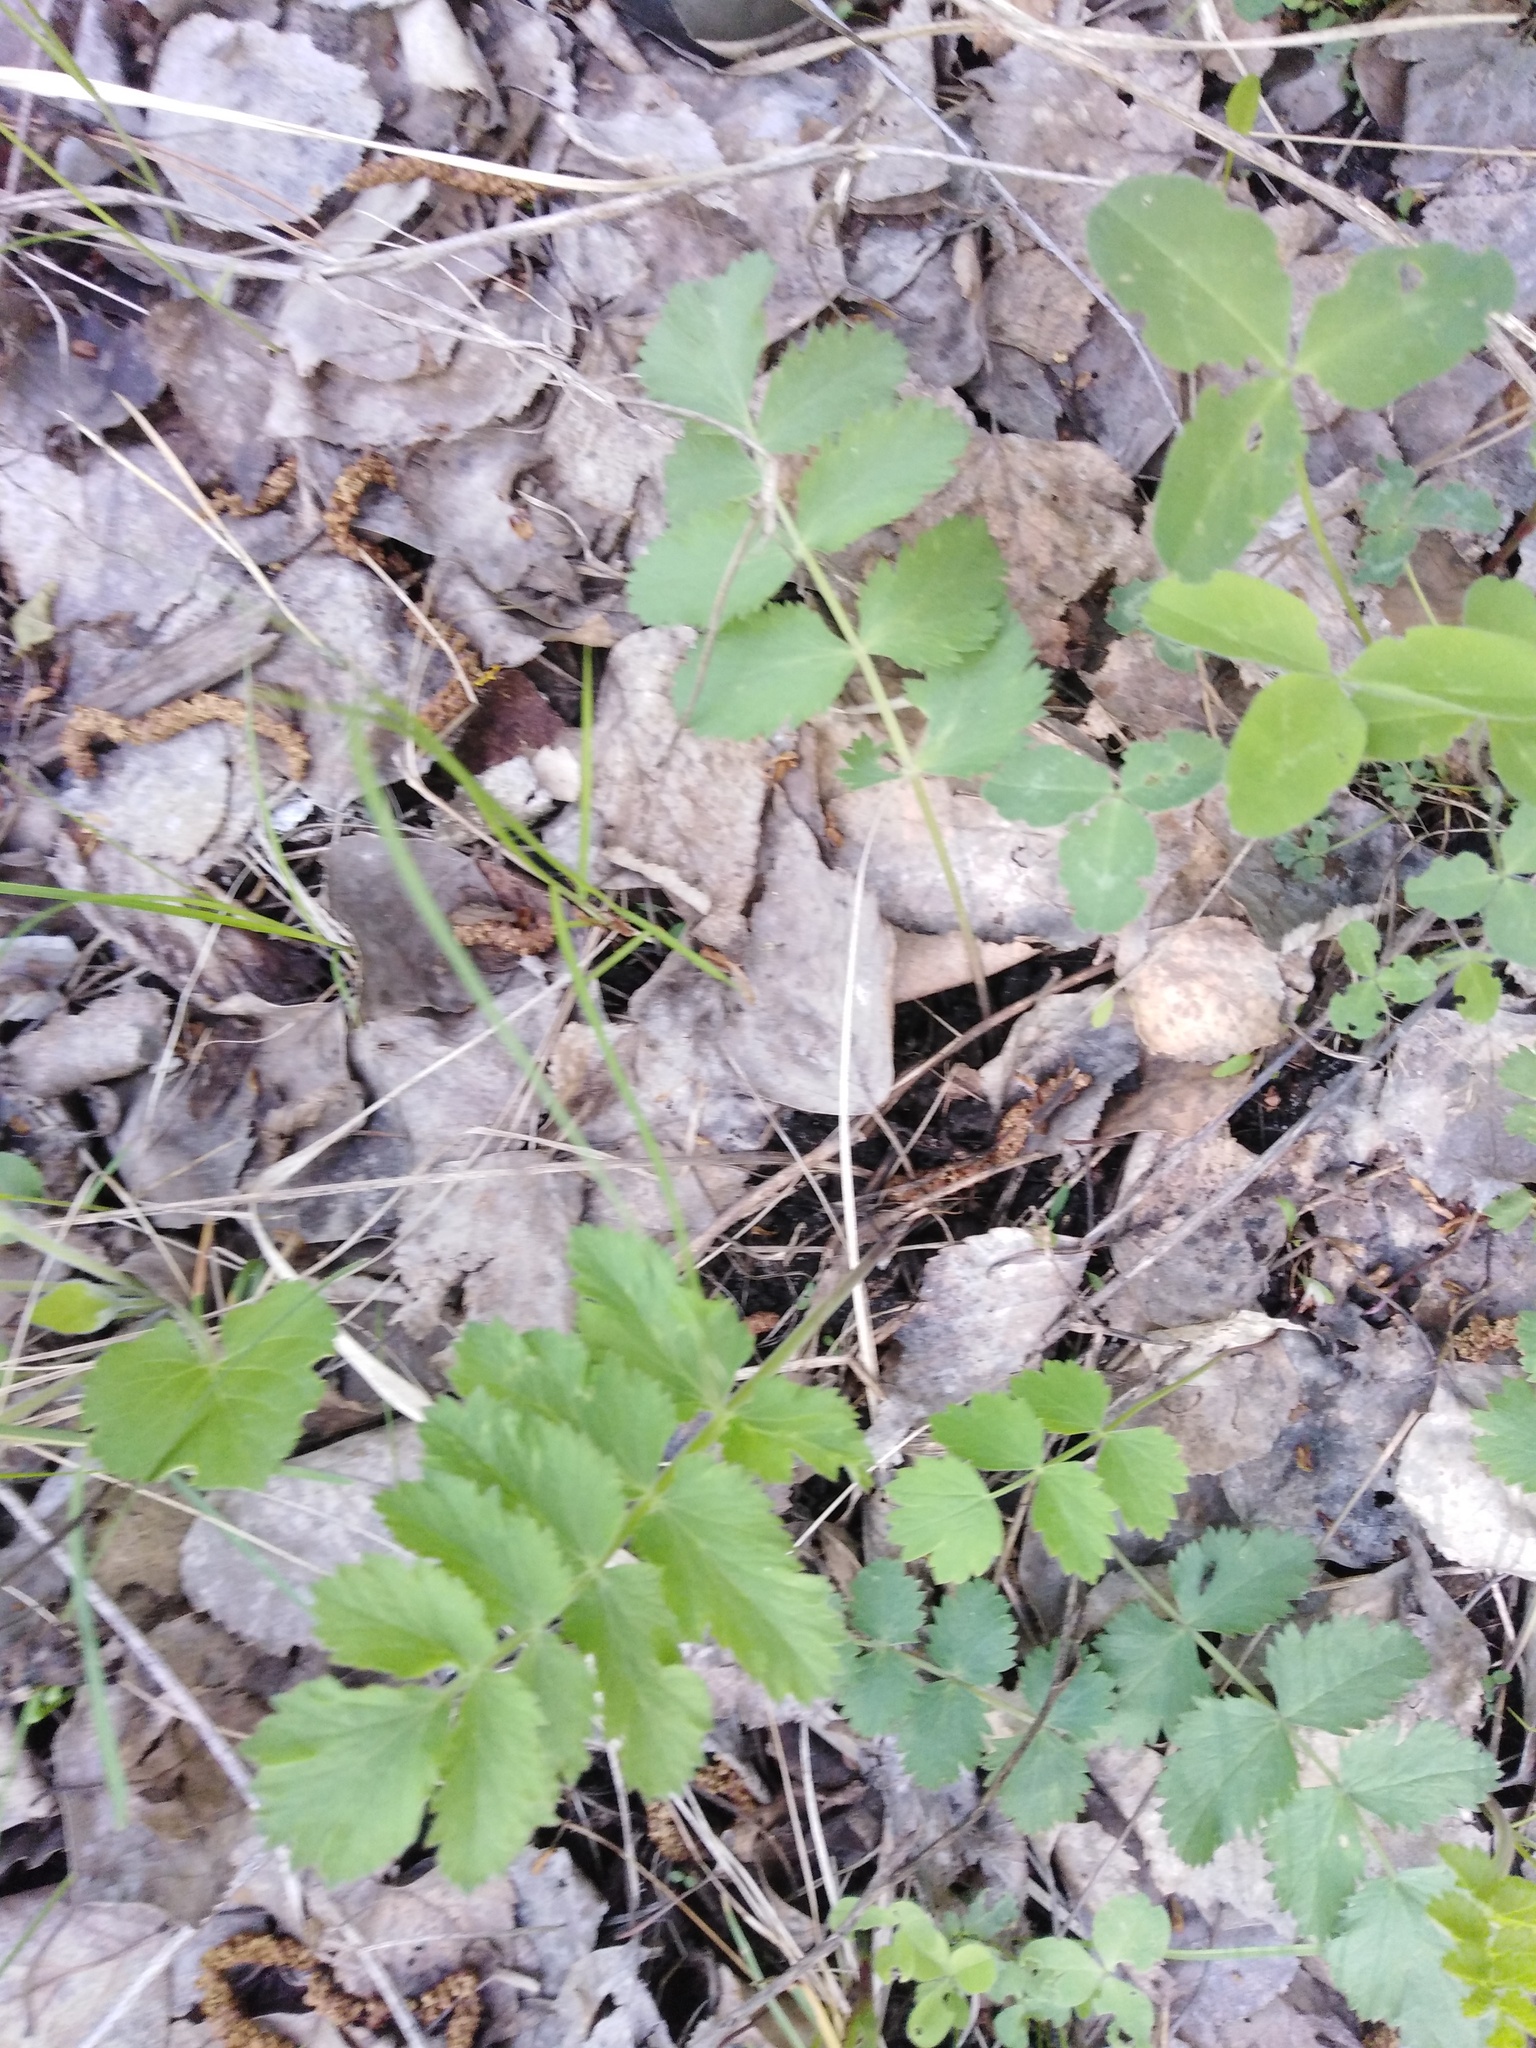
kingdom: Plantae
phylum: Tracheophyta
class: Magnoliopsida
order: Apiales
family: Apiaceae
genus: Pimpinella
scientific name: Pimpinella saxifraga
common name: Burnet-saxifrage
